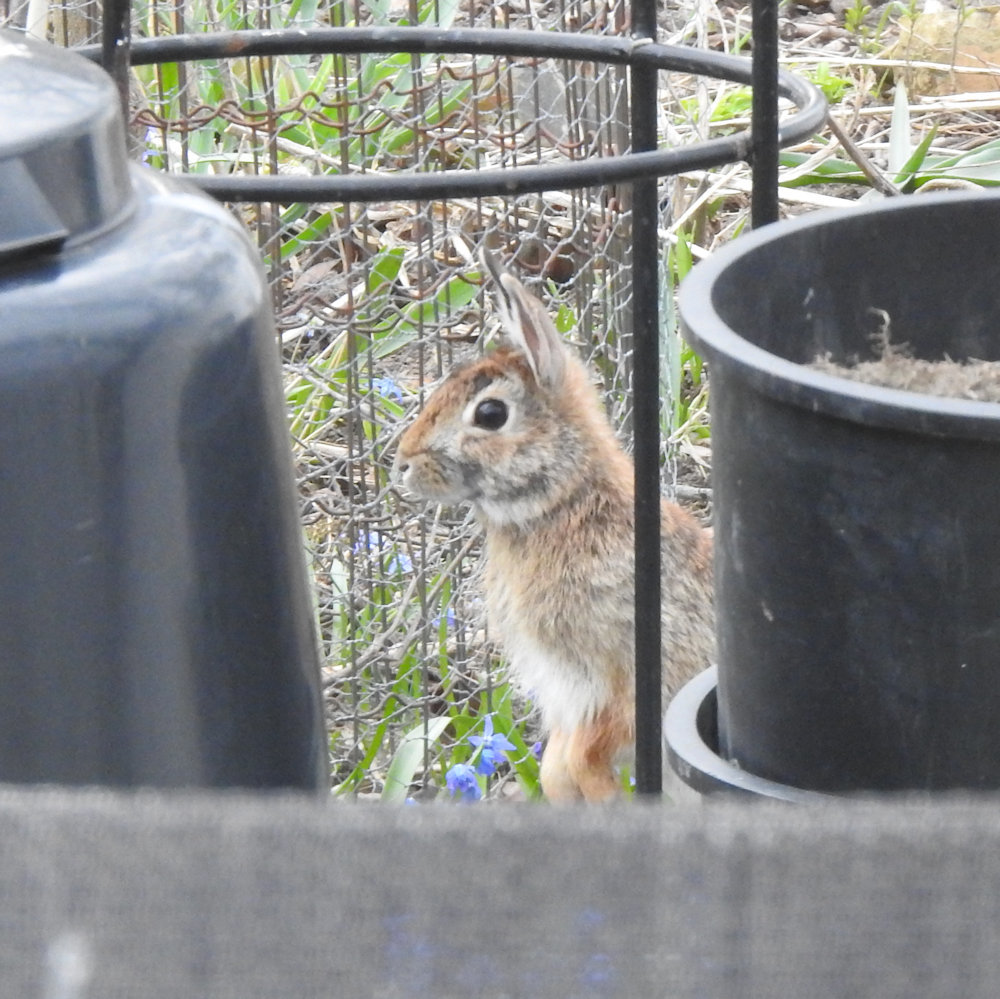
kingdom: Animalia
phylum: Chordata
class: Mammalia
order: Lagomorpha
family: Leporidae
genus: Sylvilagus
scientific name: Sylvilagus floridanus
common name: Eastern cottontail
